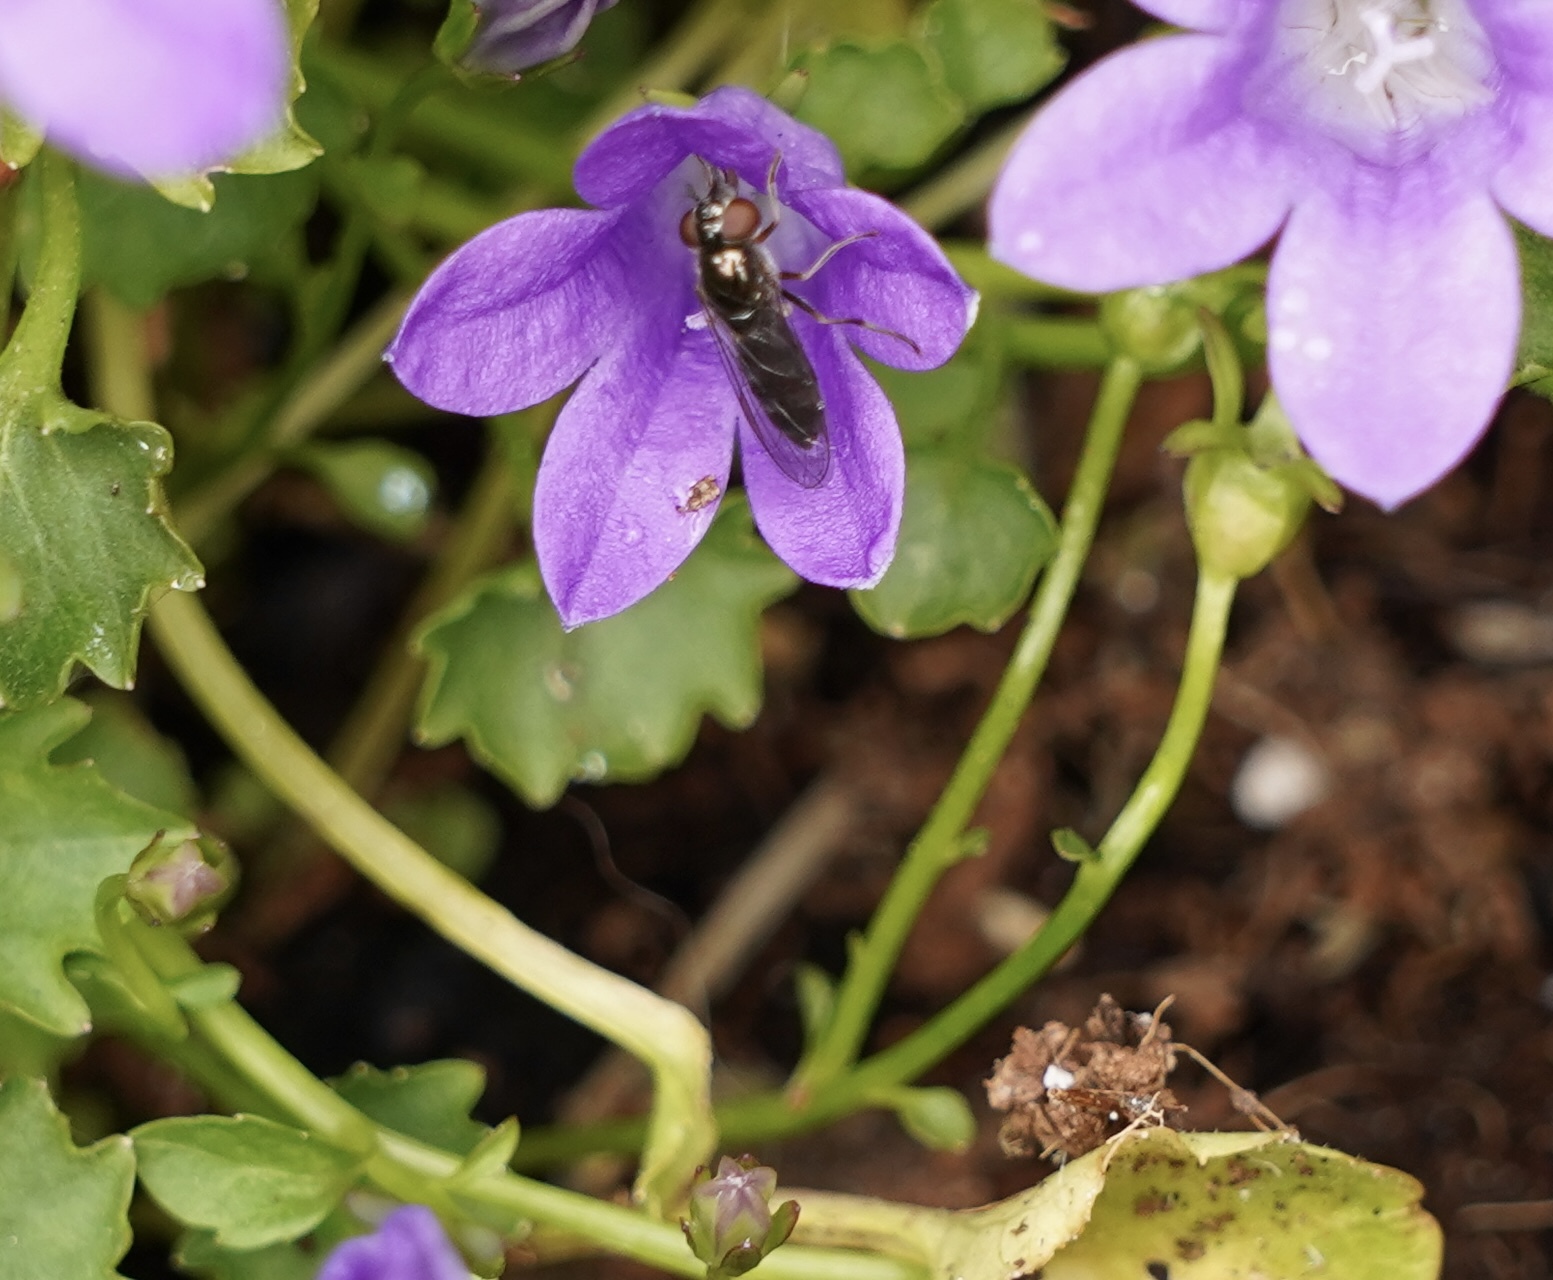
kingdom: Animalia
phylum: Arthropoda
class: Insecta
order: Diptera
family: Syrphidae
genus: Platycheirus
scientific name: Platycheirus albimanus
